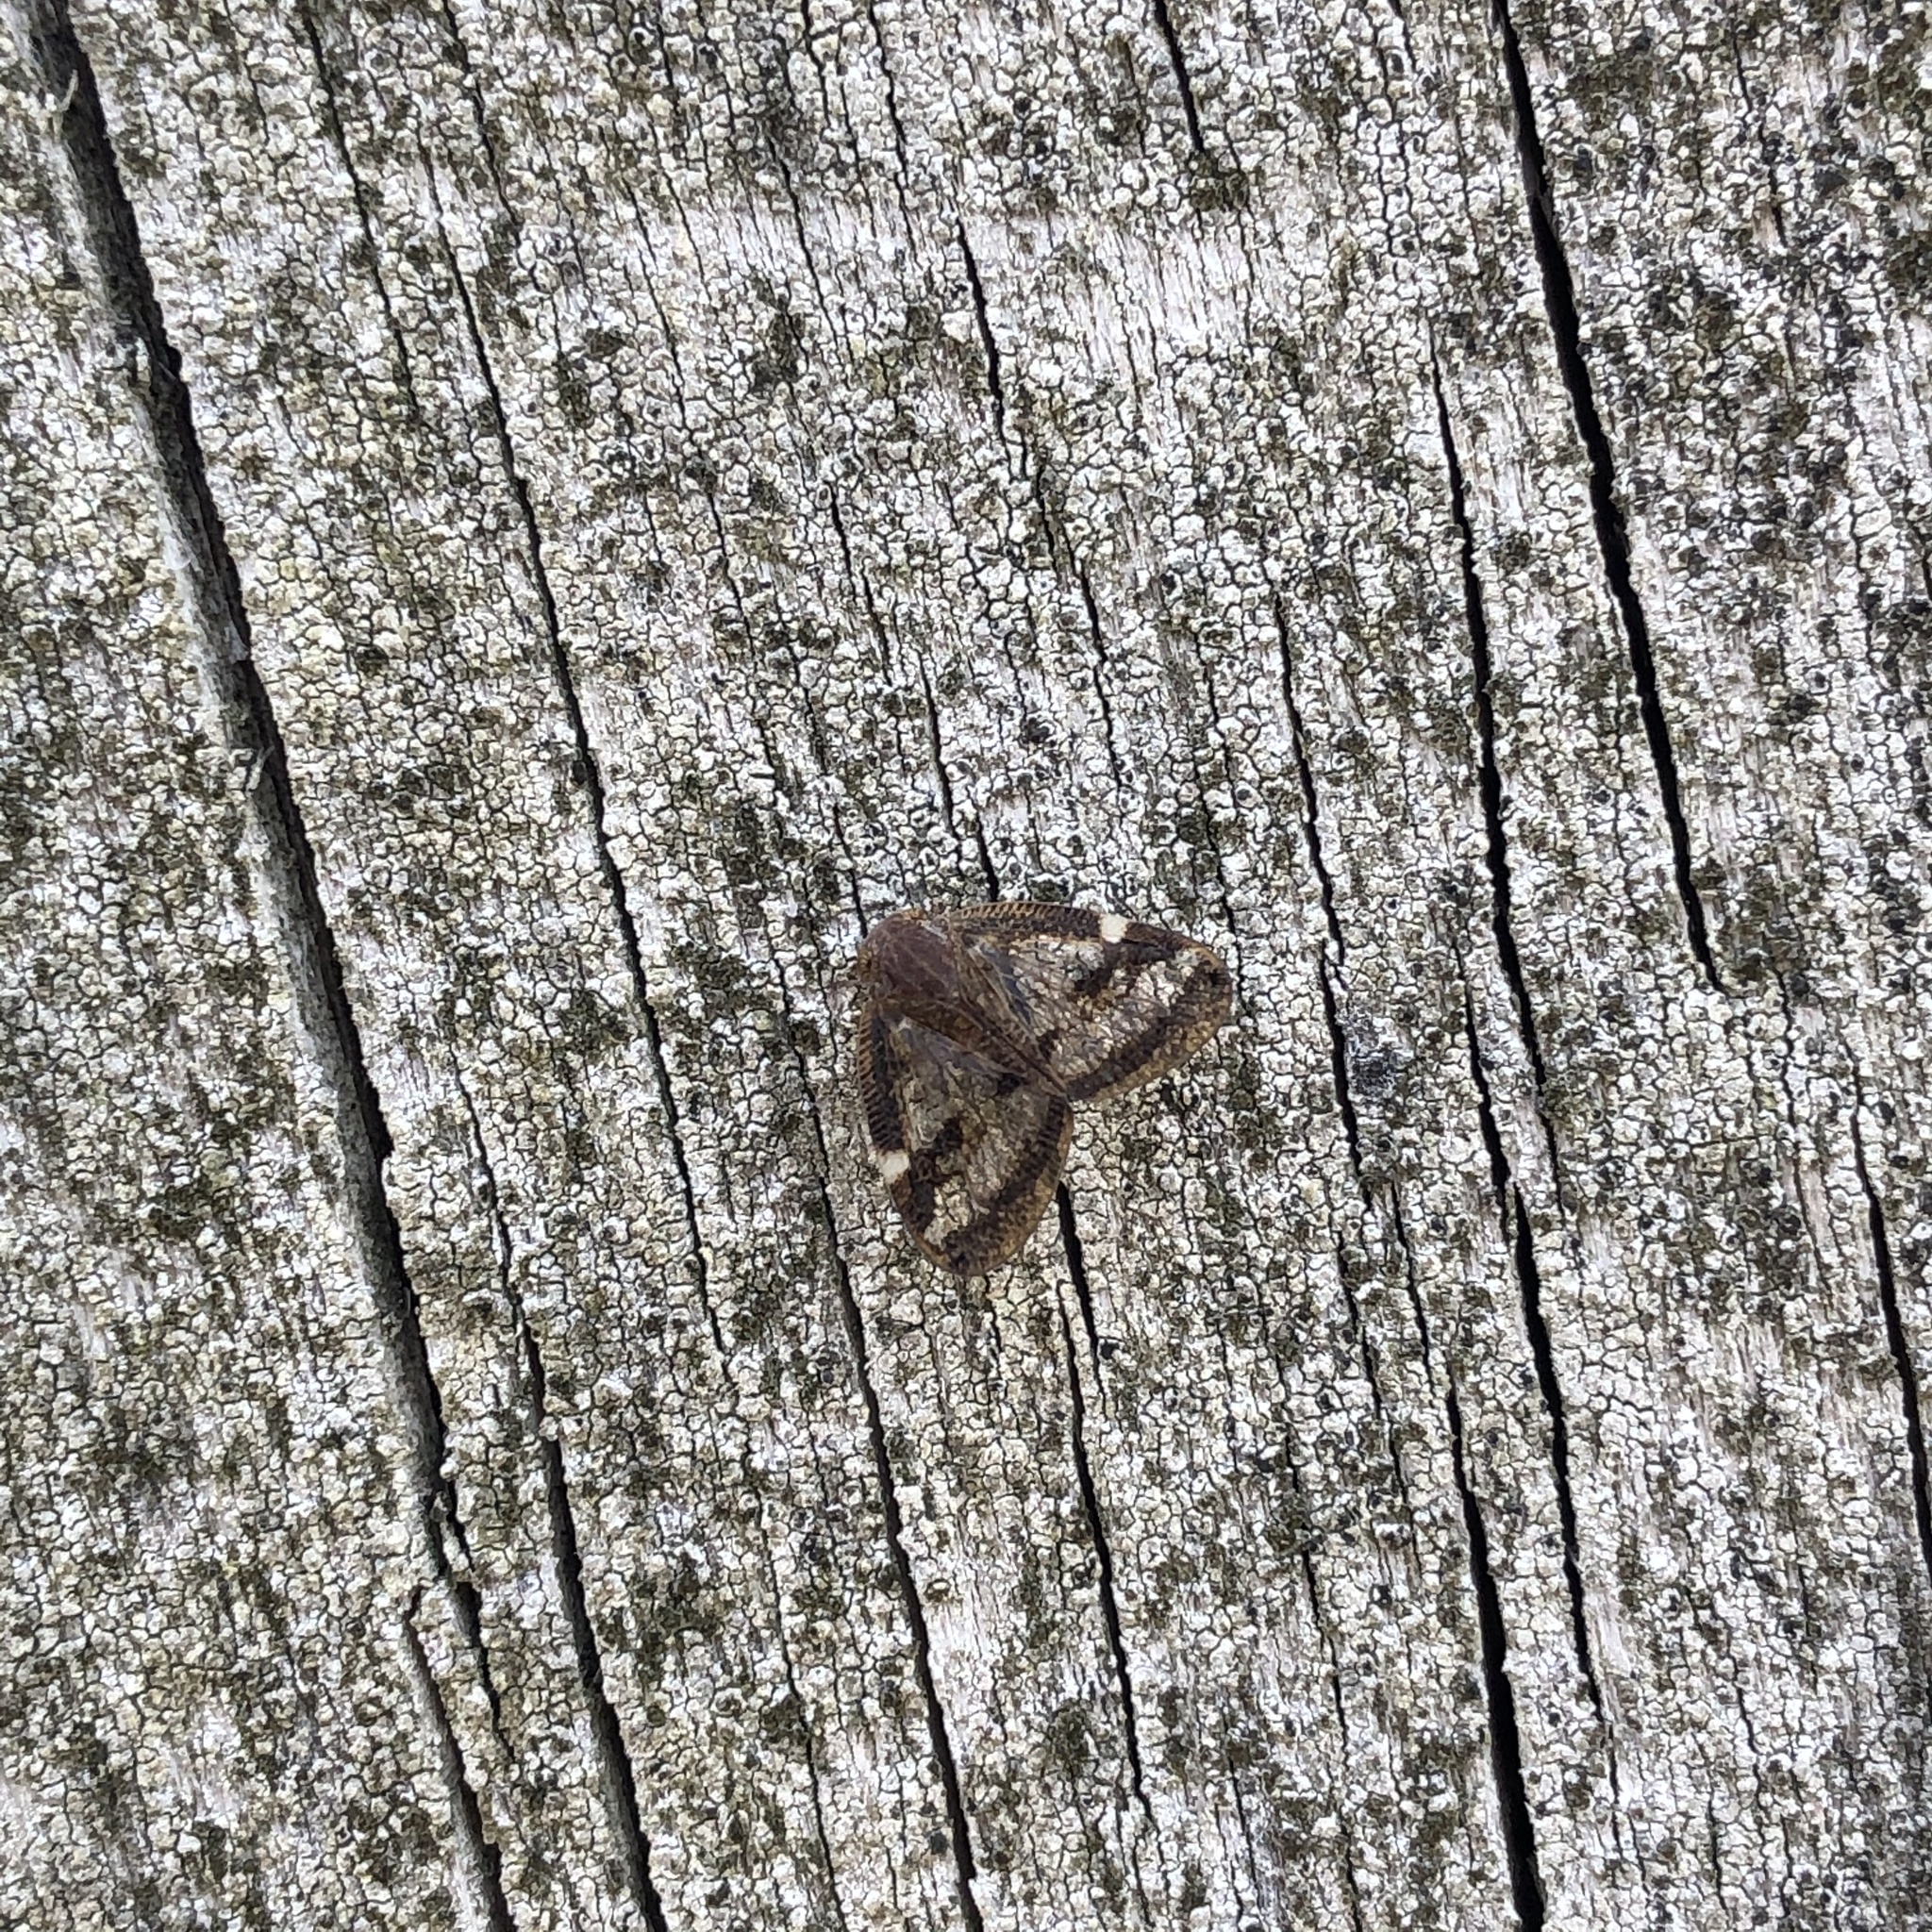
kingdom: Animalia
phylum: Arthropoda
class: Insecta
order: Hemiptera
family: Ricaniidae
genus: Scolypopa
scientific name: Scolypopa australis
